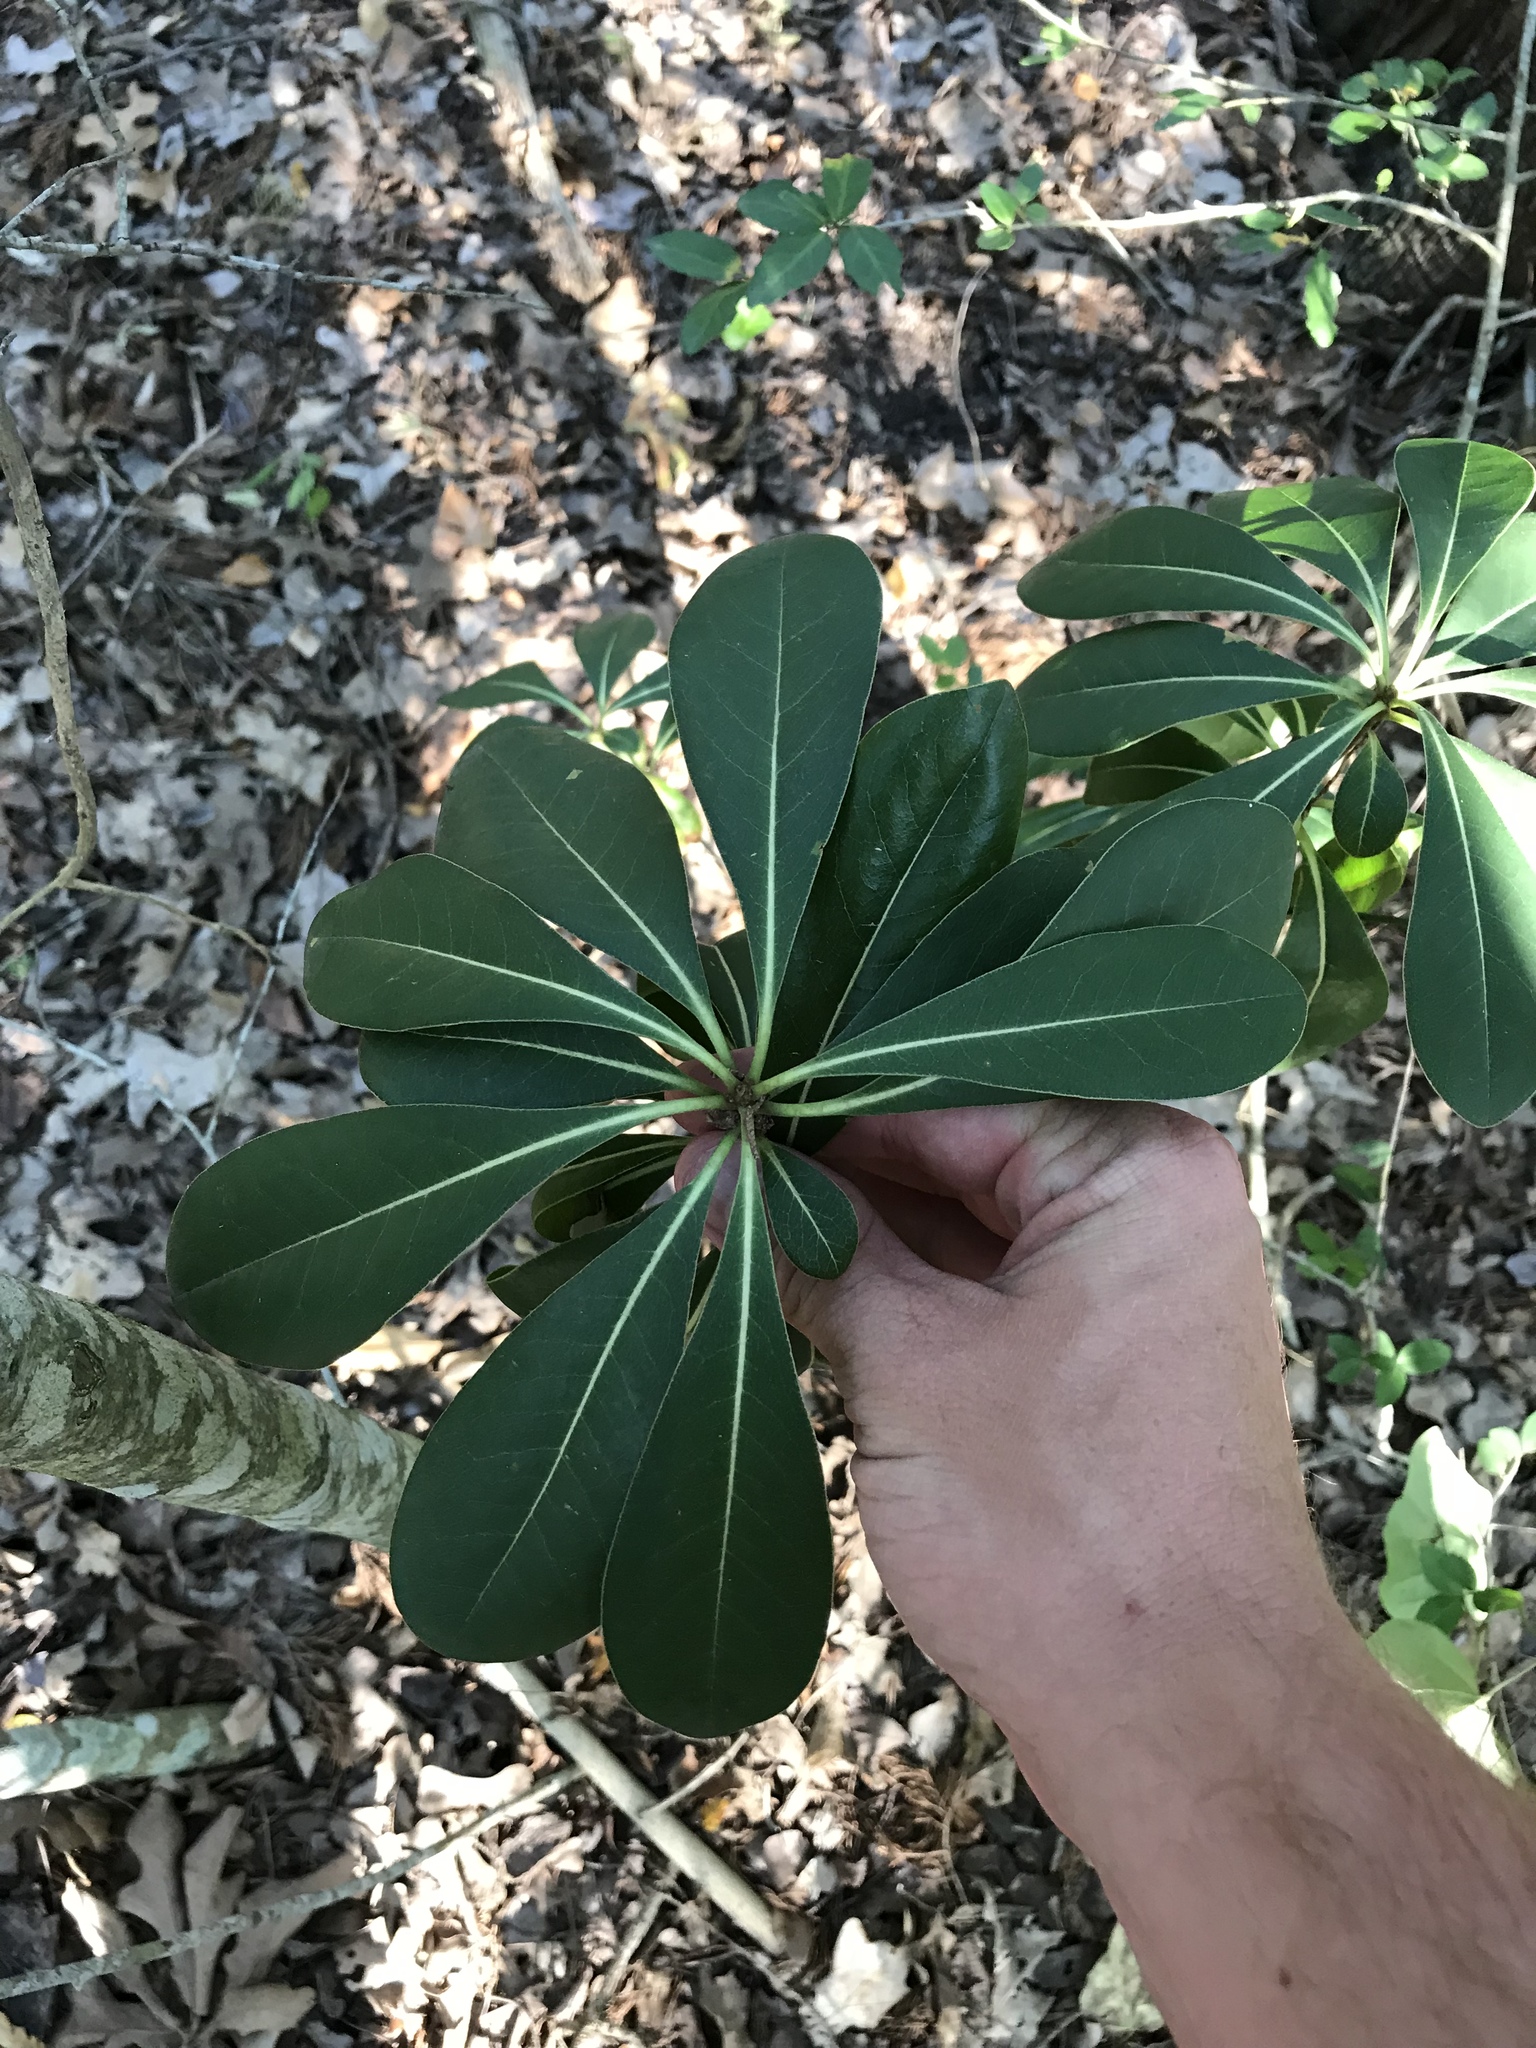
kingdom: Plantae
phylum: Tracheophyta
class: Magnoliopsida
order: Apiales
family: Pittosporaceae
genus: Pittosporum
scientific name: Pittosporum tobira
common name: Japanese cheesewood
